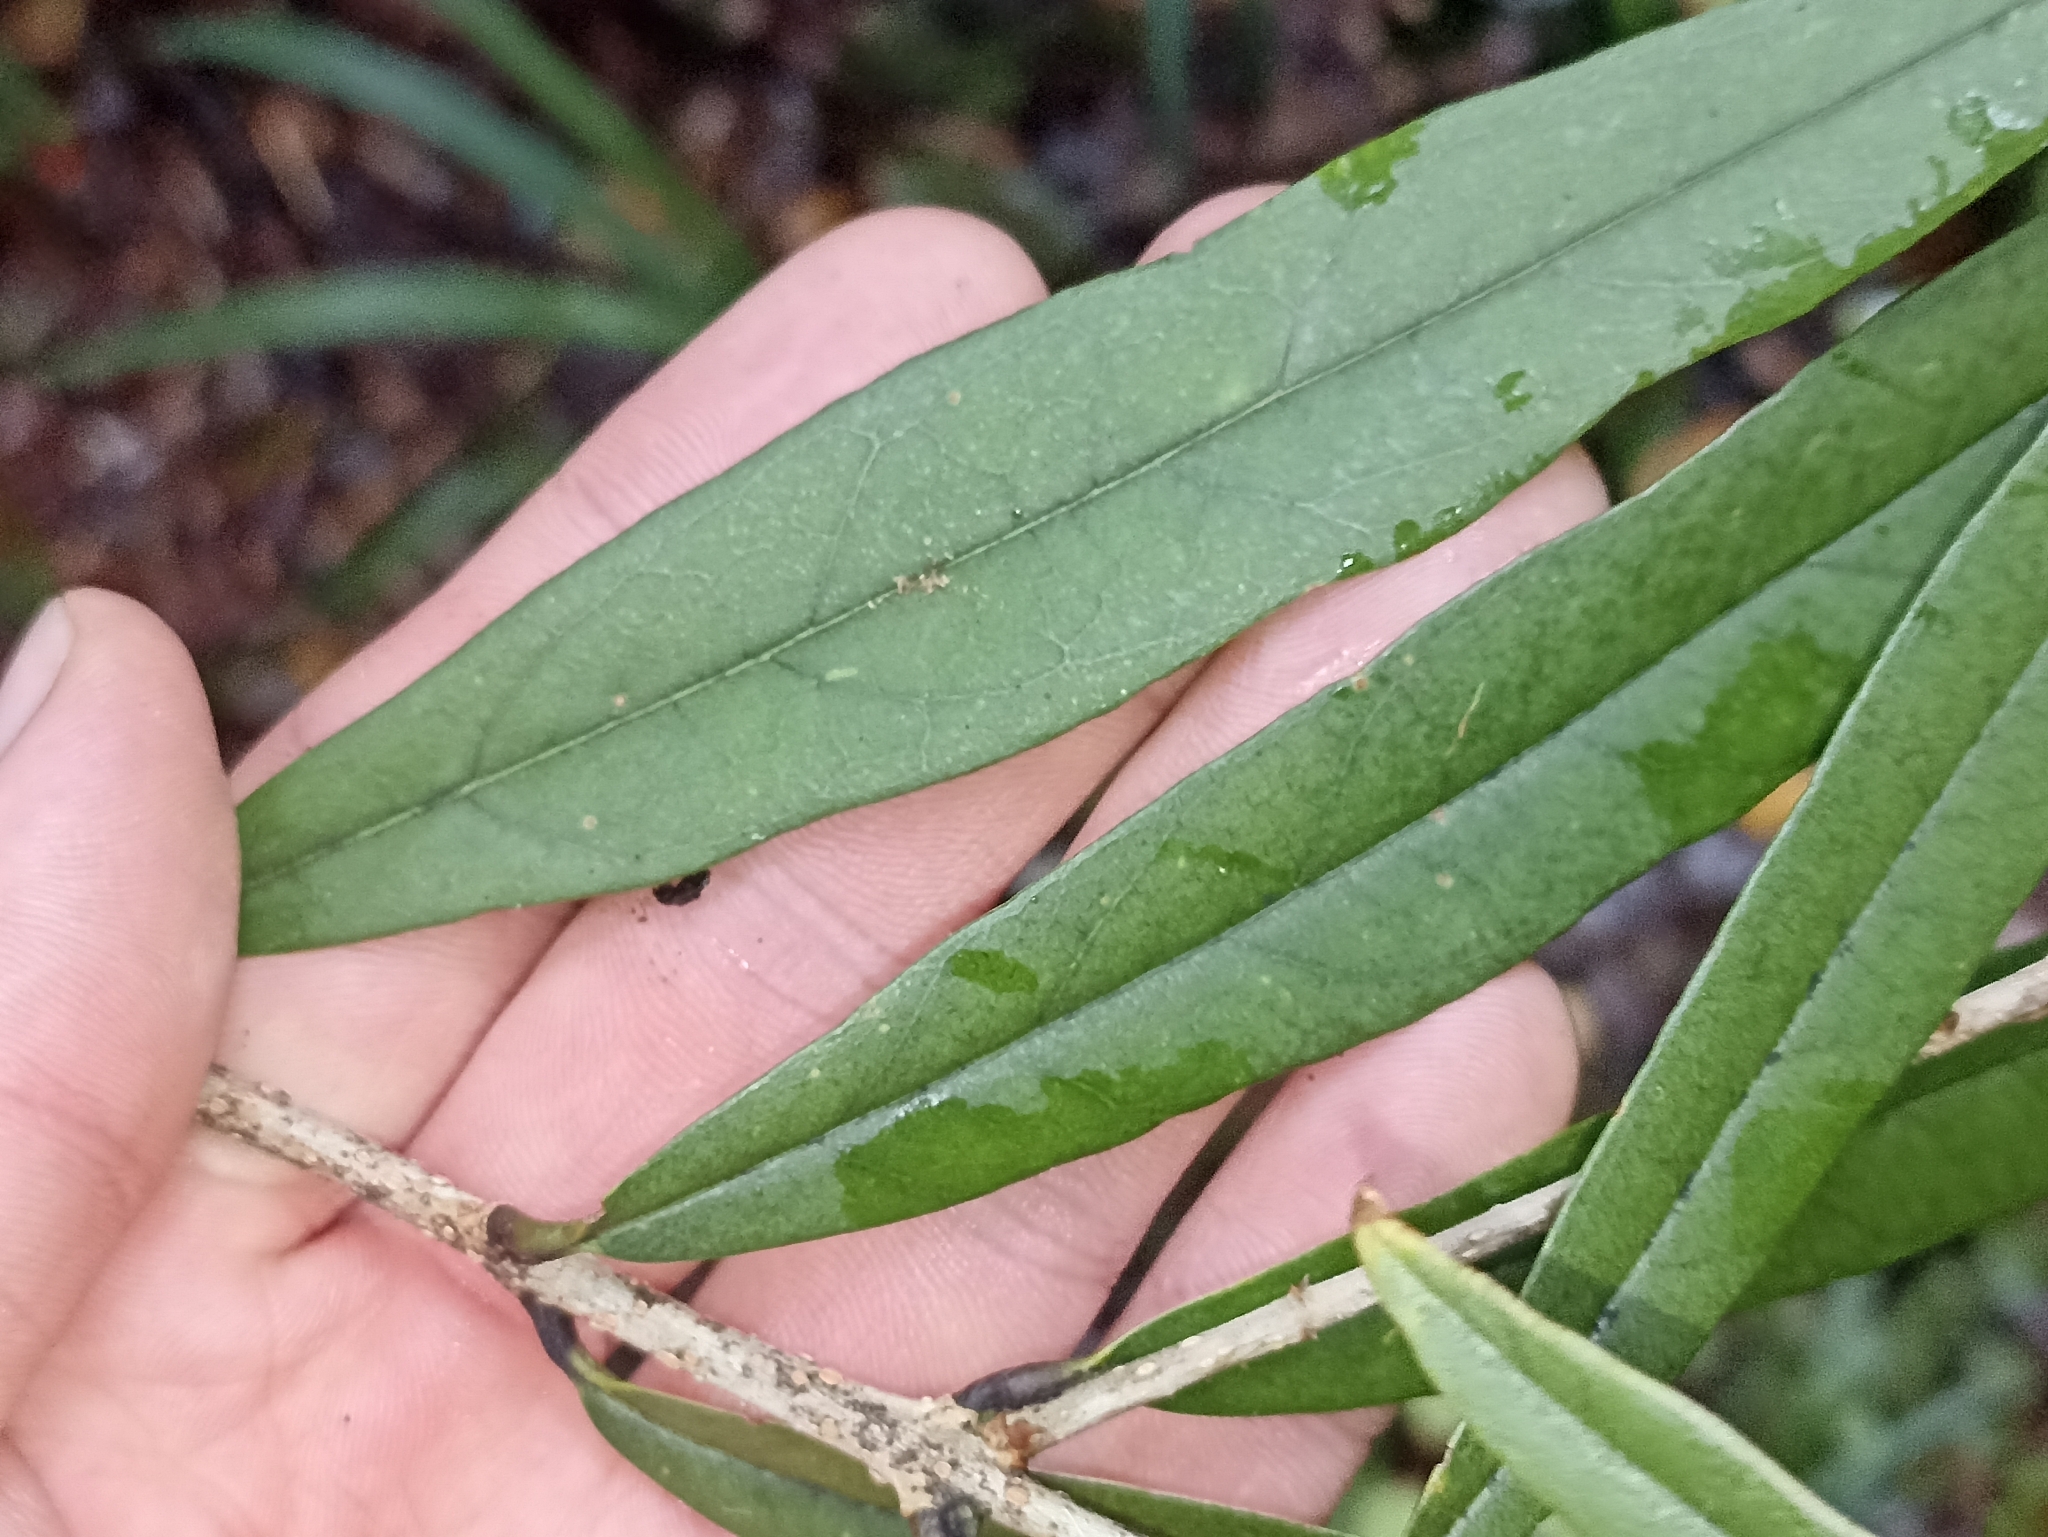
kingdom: Plantae
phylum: Tracheophyta
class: Magnoliopsida
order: Lamiales
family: Oleaceae
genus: Nestegis
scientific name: Nestegis cunninghamii
